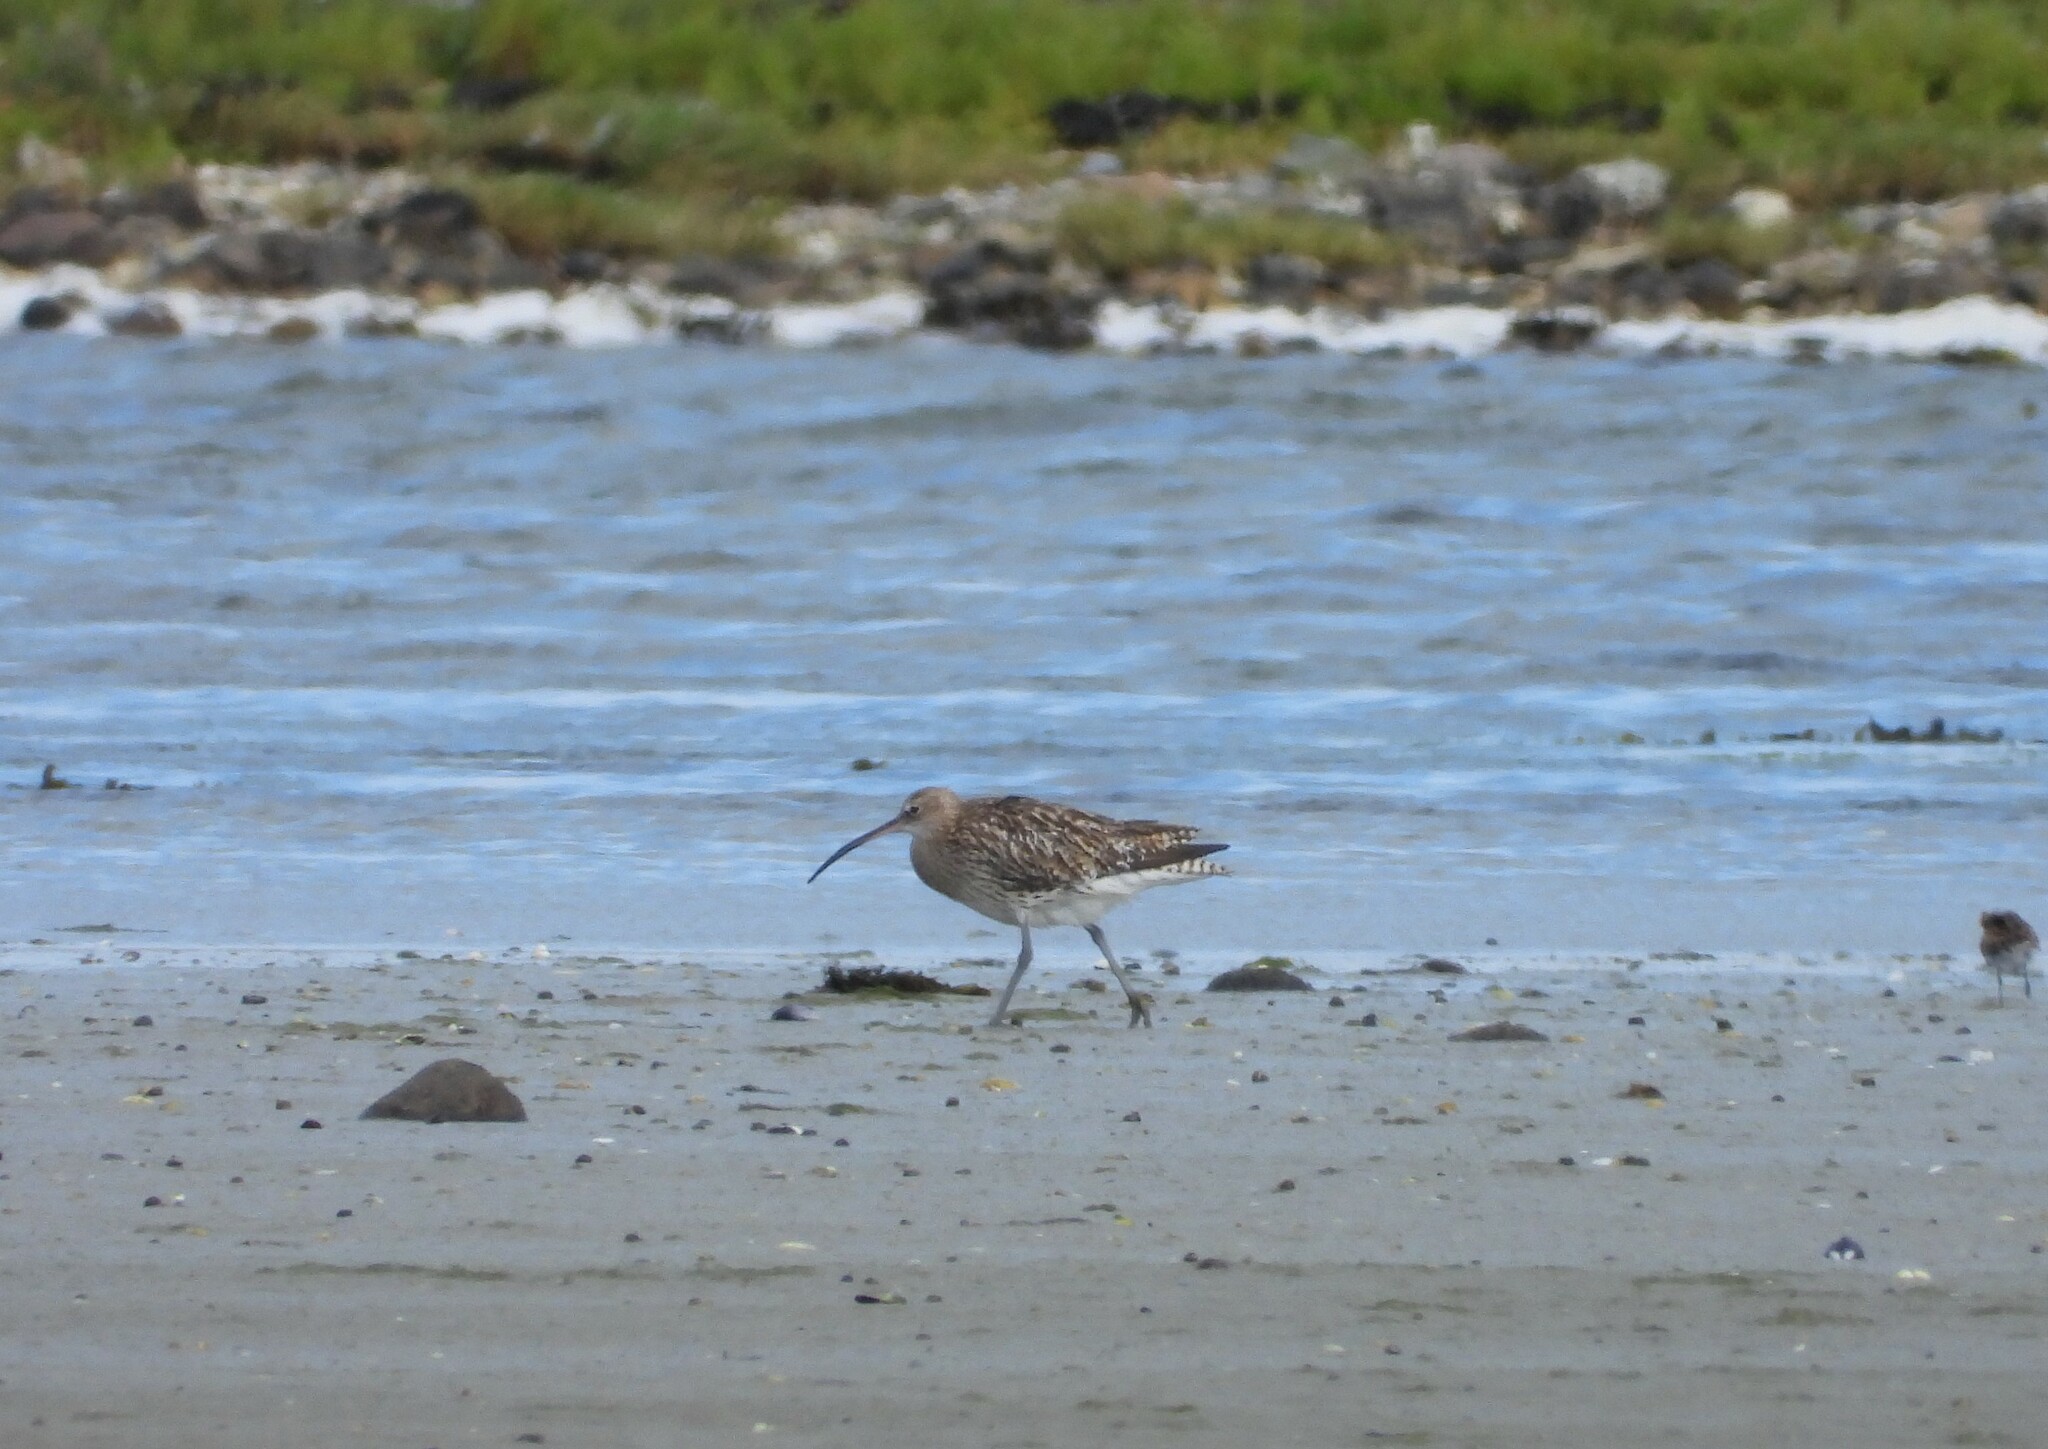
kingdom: Animalia
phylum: Chordata
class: Aves
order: Charadriiformes
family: Scolopacidae
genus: Numenius
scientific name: Numenius arquata
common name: Eurasian curlew
